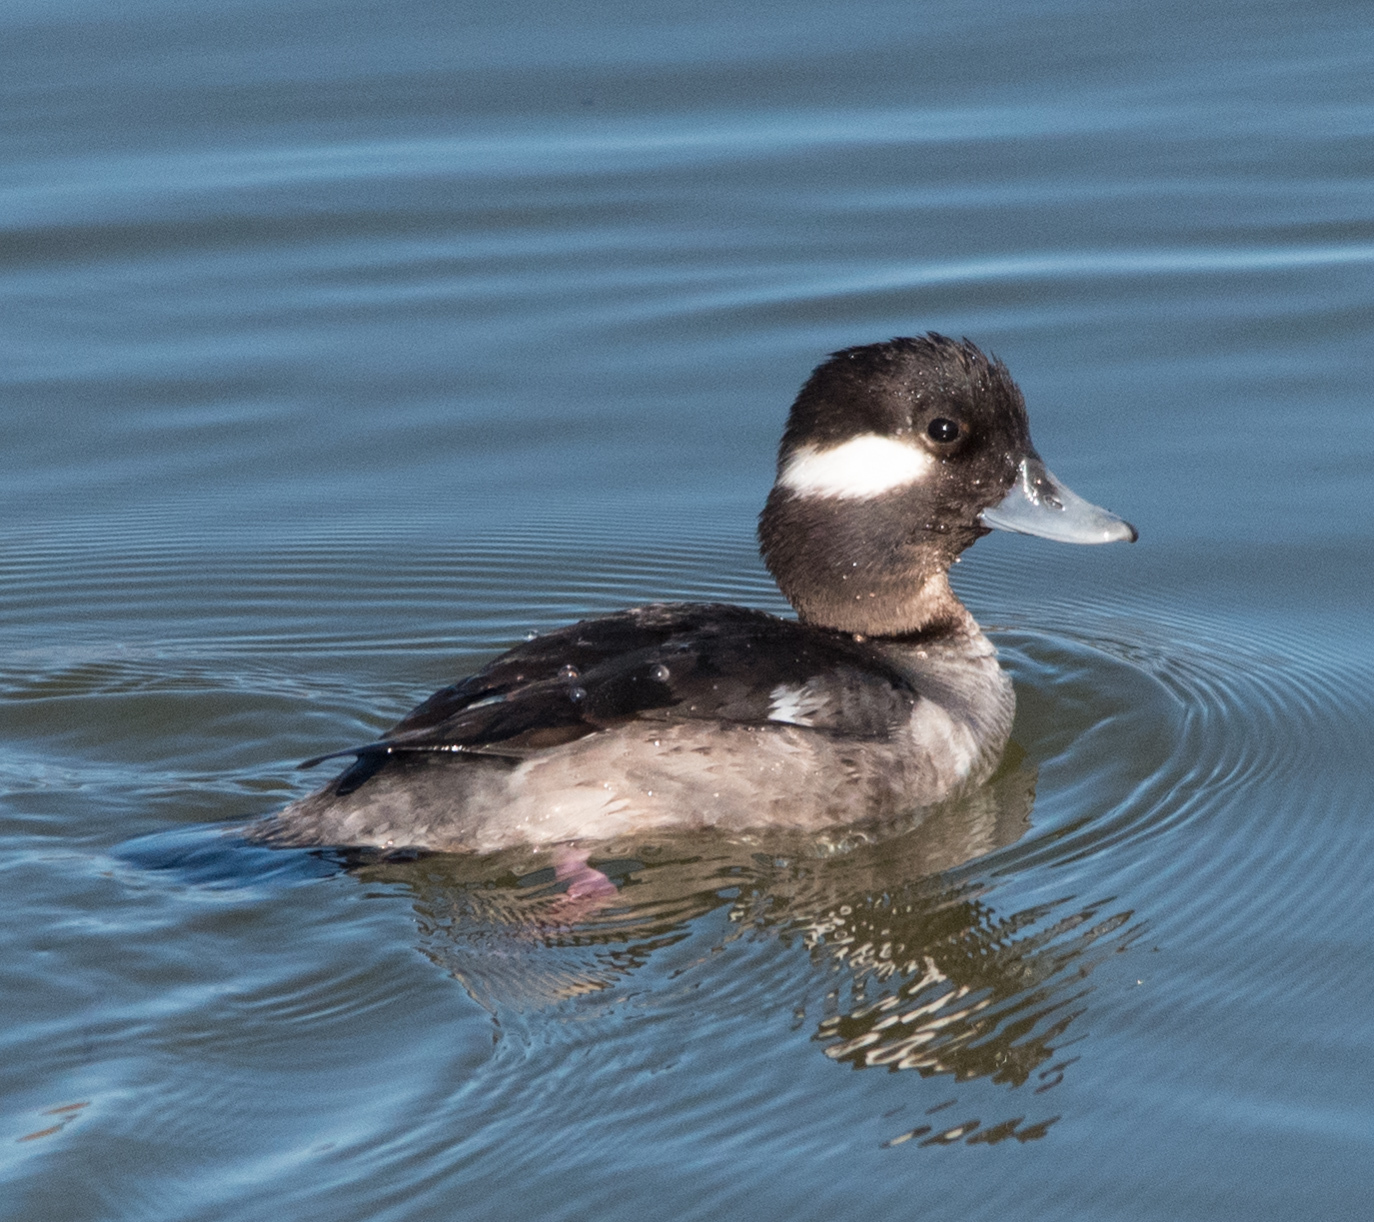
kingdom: Animalia
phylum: Chordata
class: Aves
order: Anseriformes
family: Anatidae
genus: Bucephala
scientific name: Bucephala albeola
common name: Bufflehead
